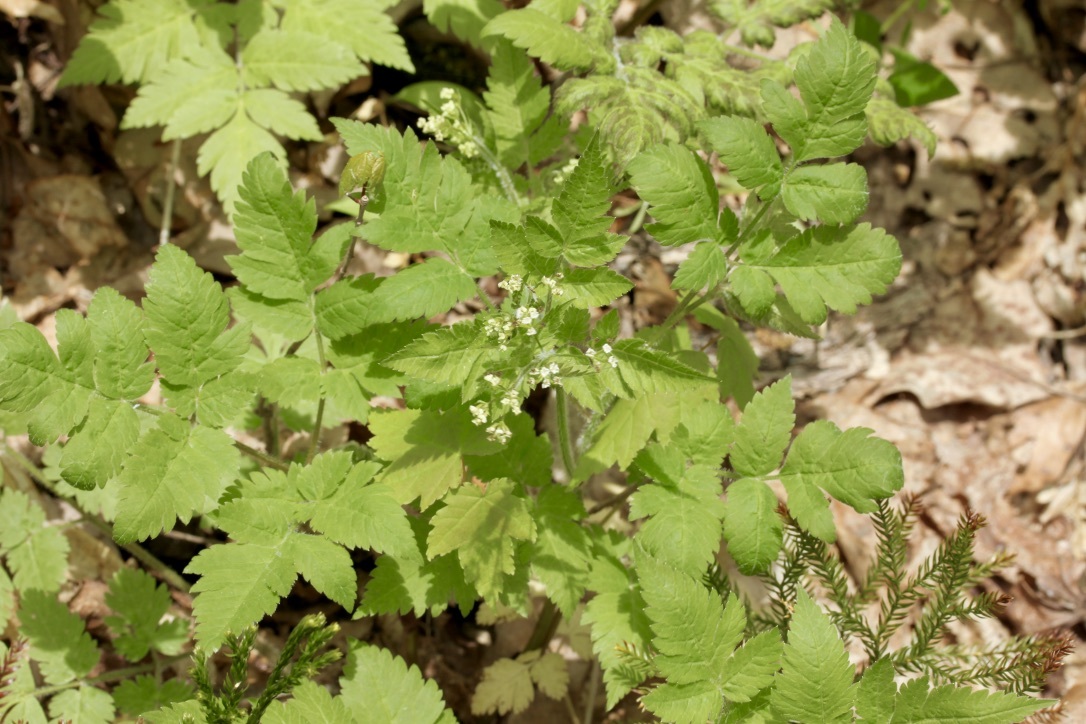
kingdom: Plantae
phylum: Tracheophyta
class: Magnoliopsida
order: Apiales
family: Apiaceae
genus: Osmorhiza
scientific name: Osmorhiza claytonii
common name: Hairy sweet cicely
